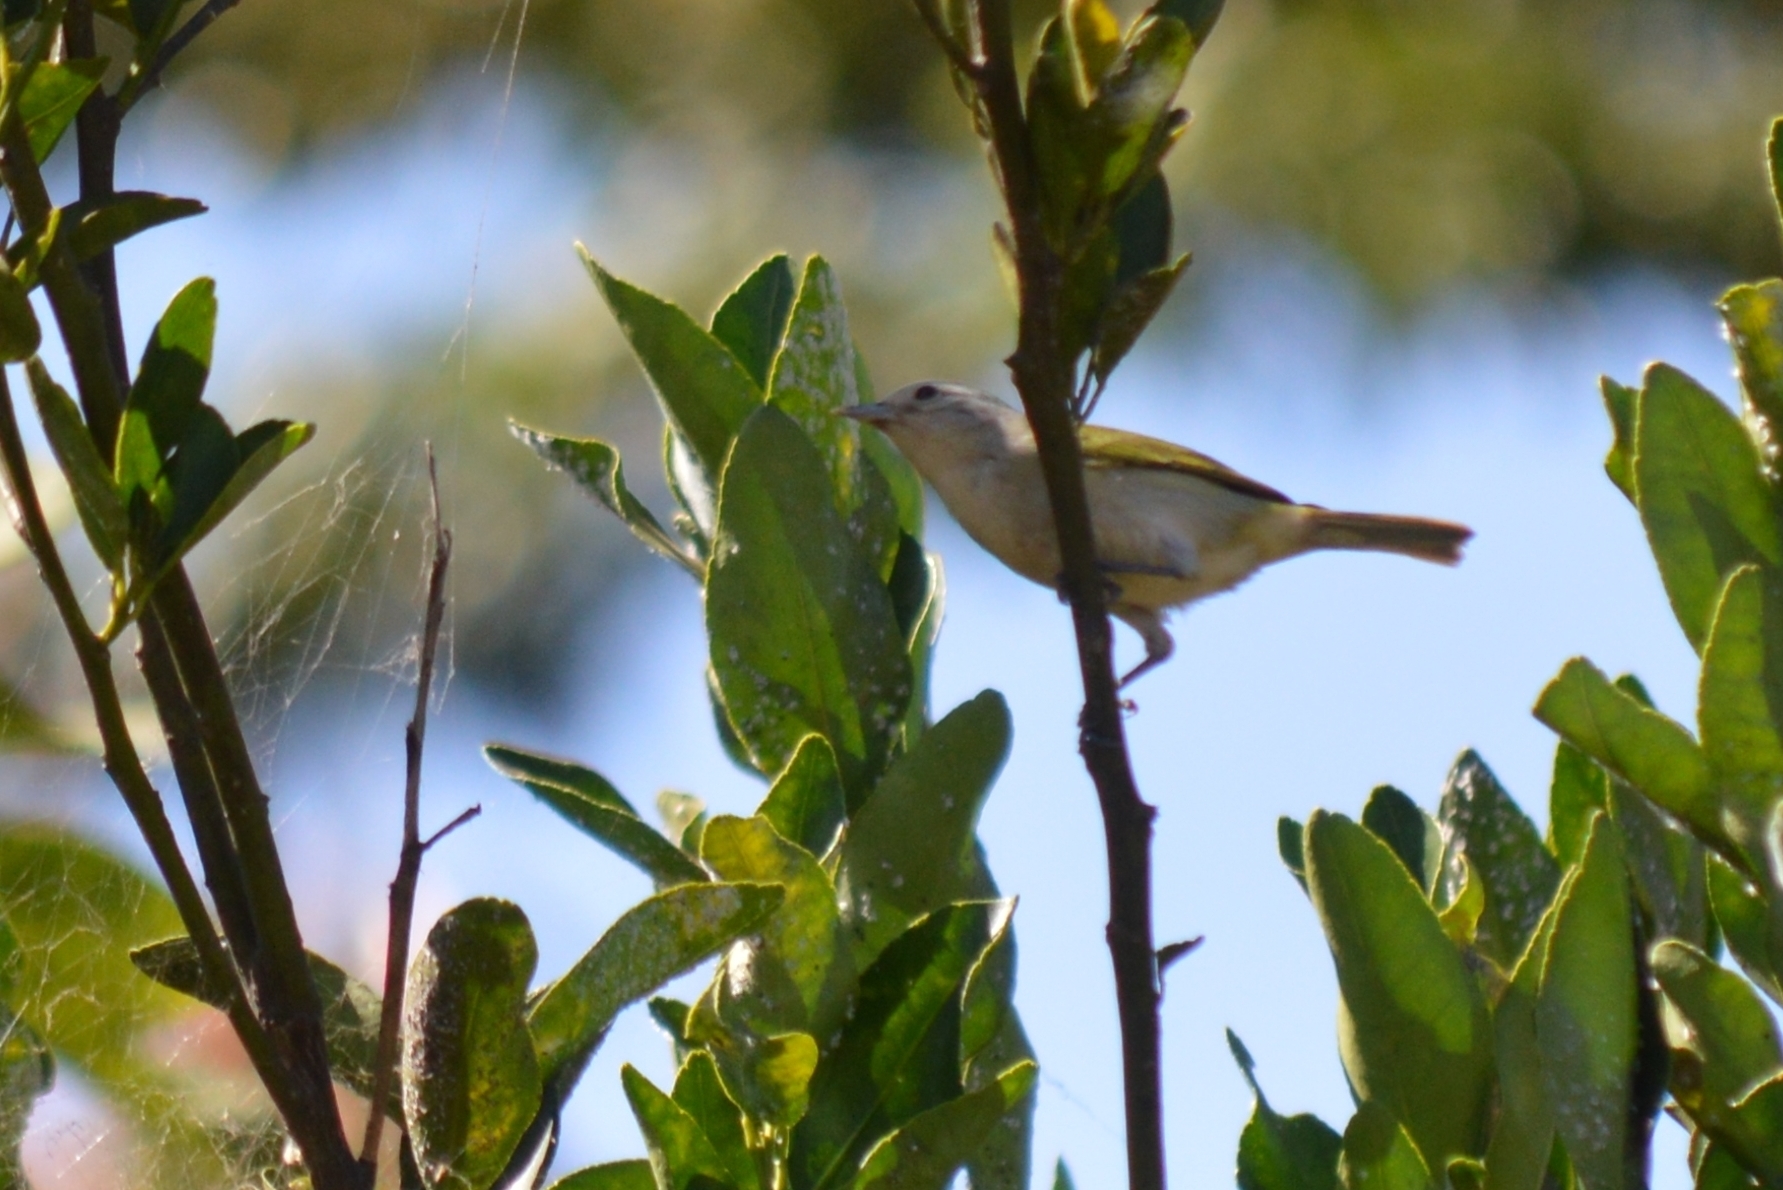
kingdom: Animalia
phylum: Chordata
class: Aves
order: Passeriformes
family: Thraupidae
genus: Conirostrum
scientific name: Conirostrum speciosum
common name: Chestnut-vented conebill
